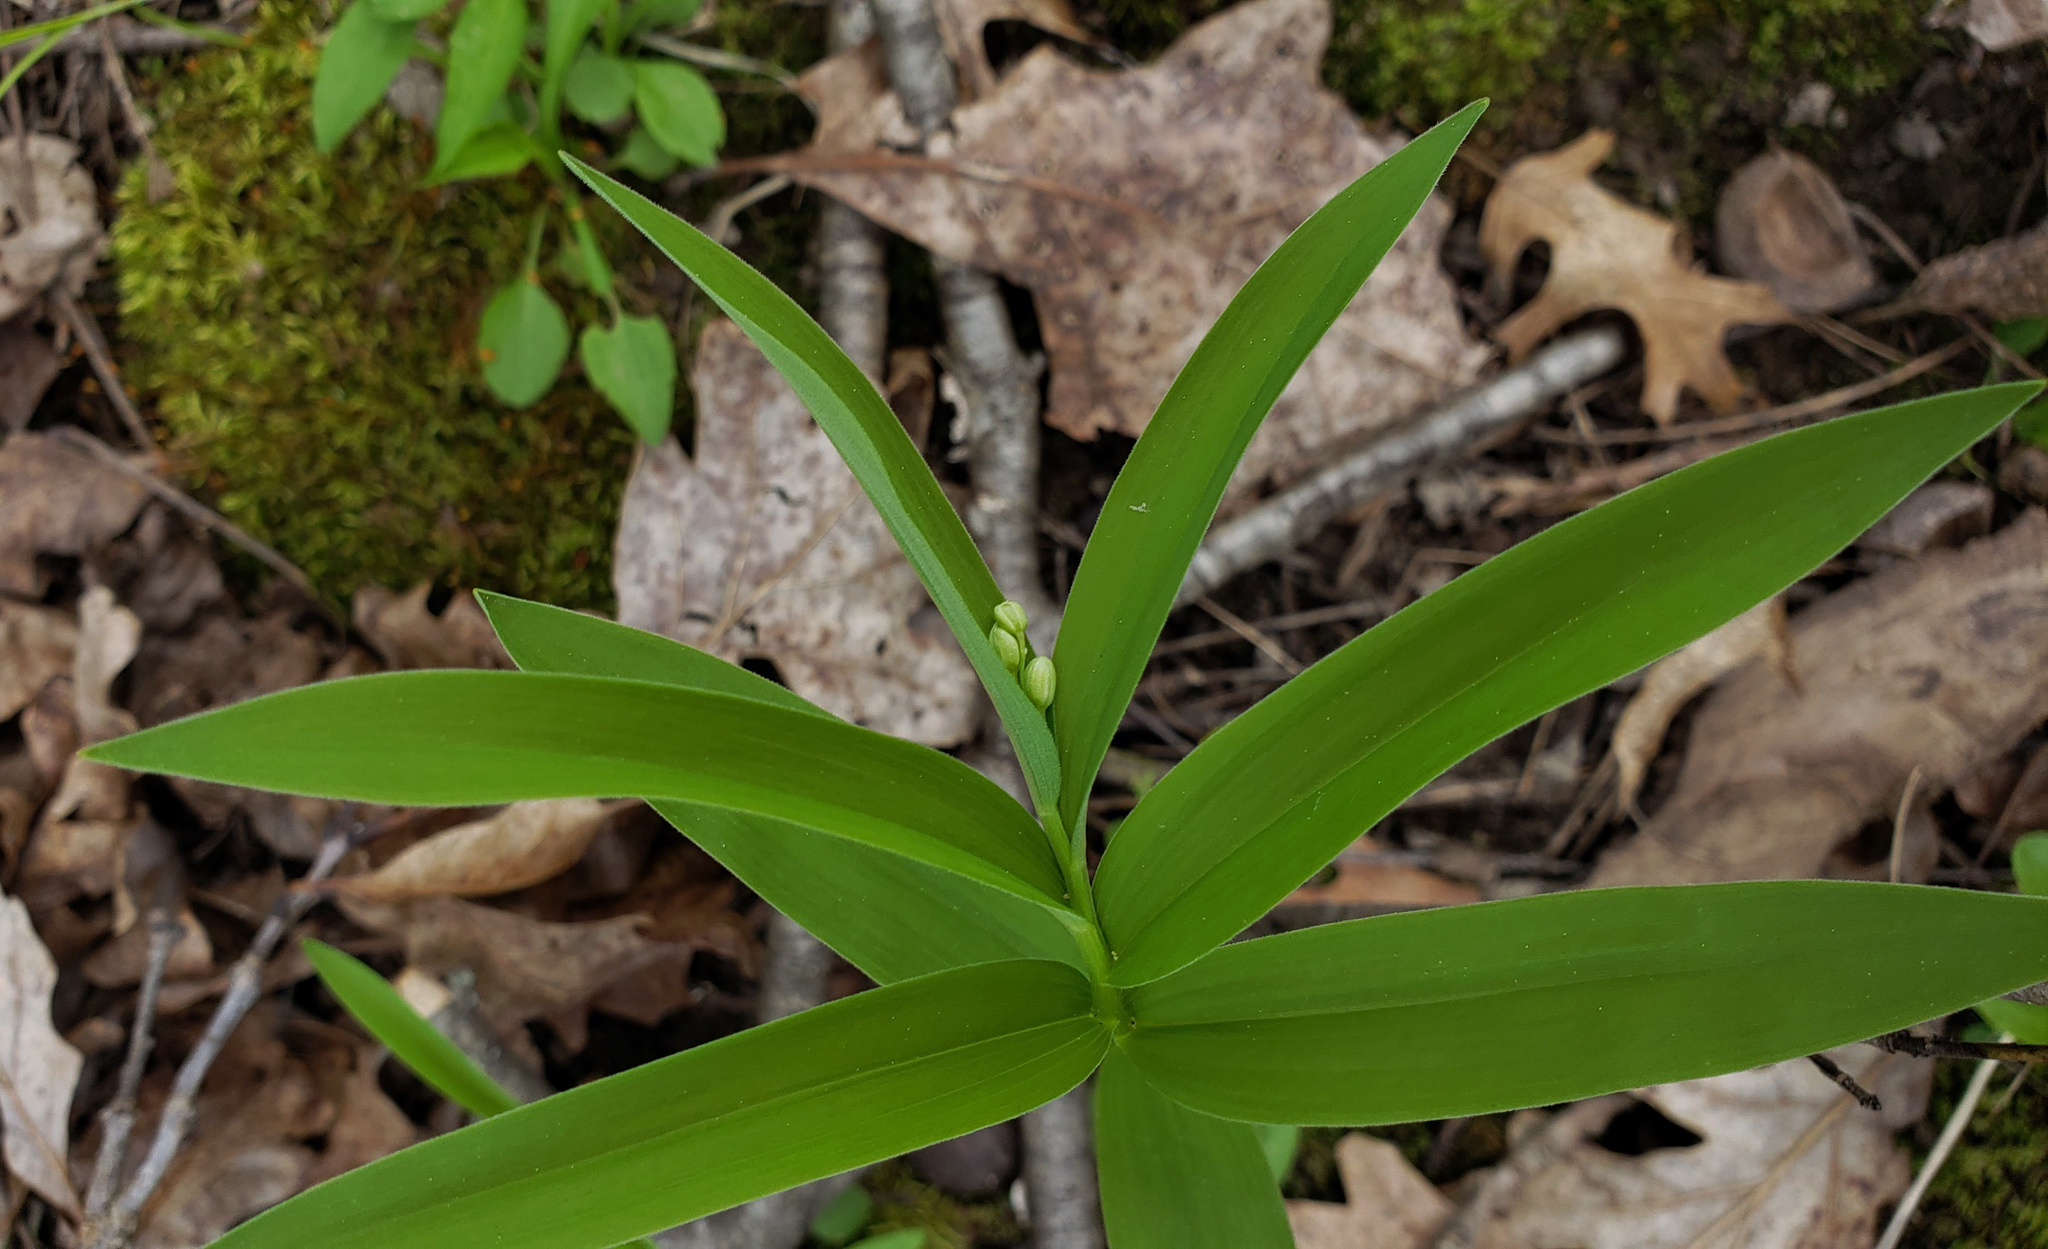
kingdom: Plantae
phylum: Tracheophyta
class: Liliopsida
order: Asparagales
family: Asparagaceae
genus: Maianthemum
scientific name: Maianthemum stellatum
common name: Little false solomon's seal
